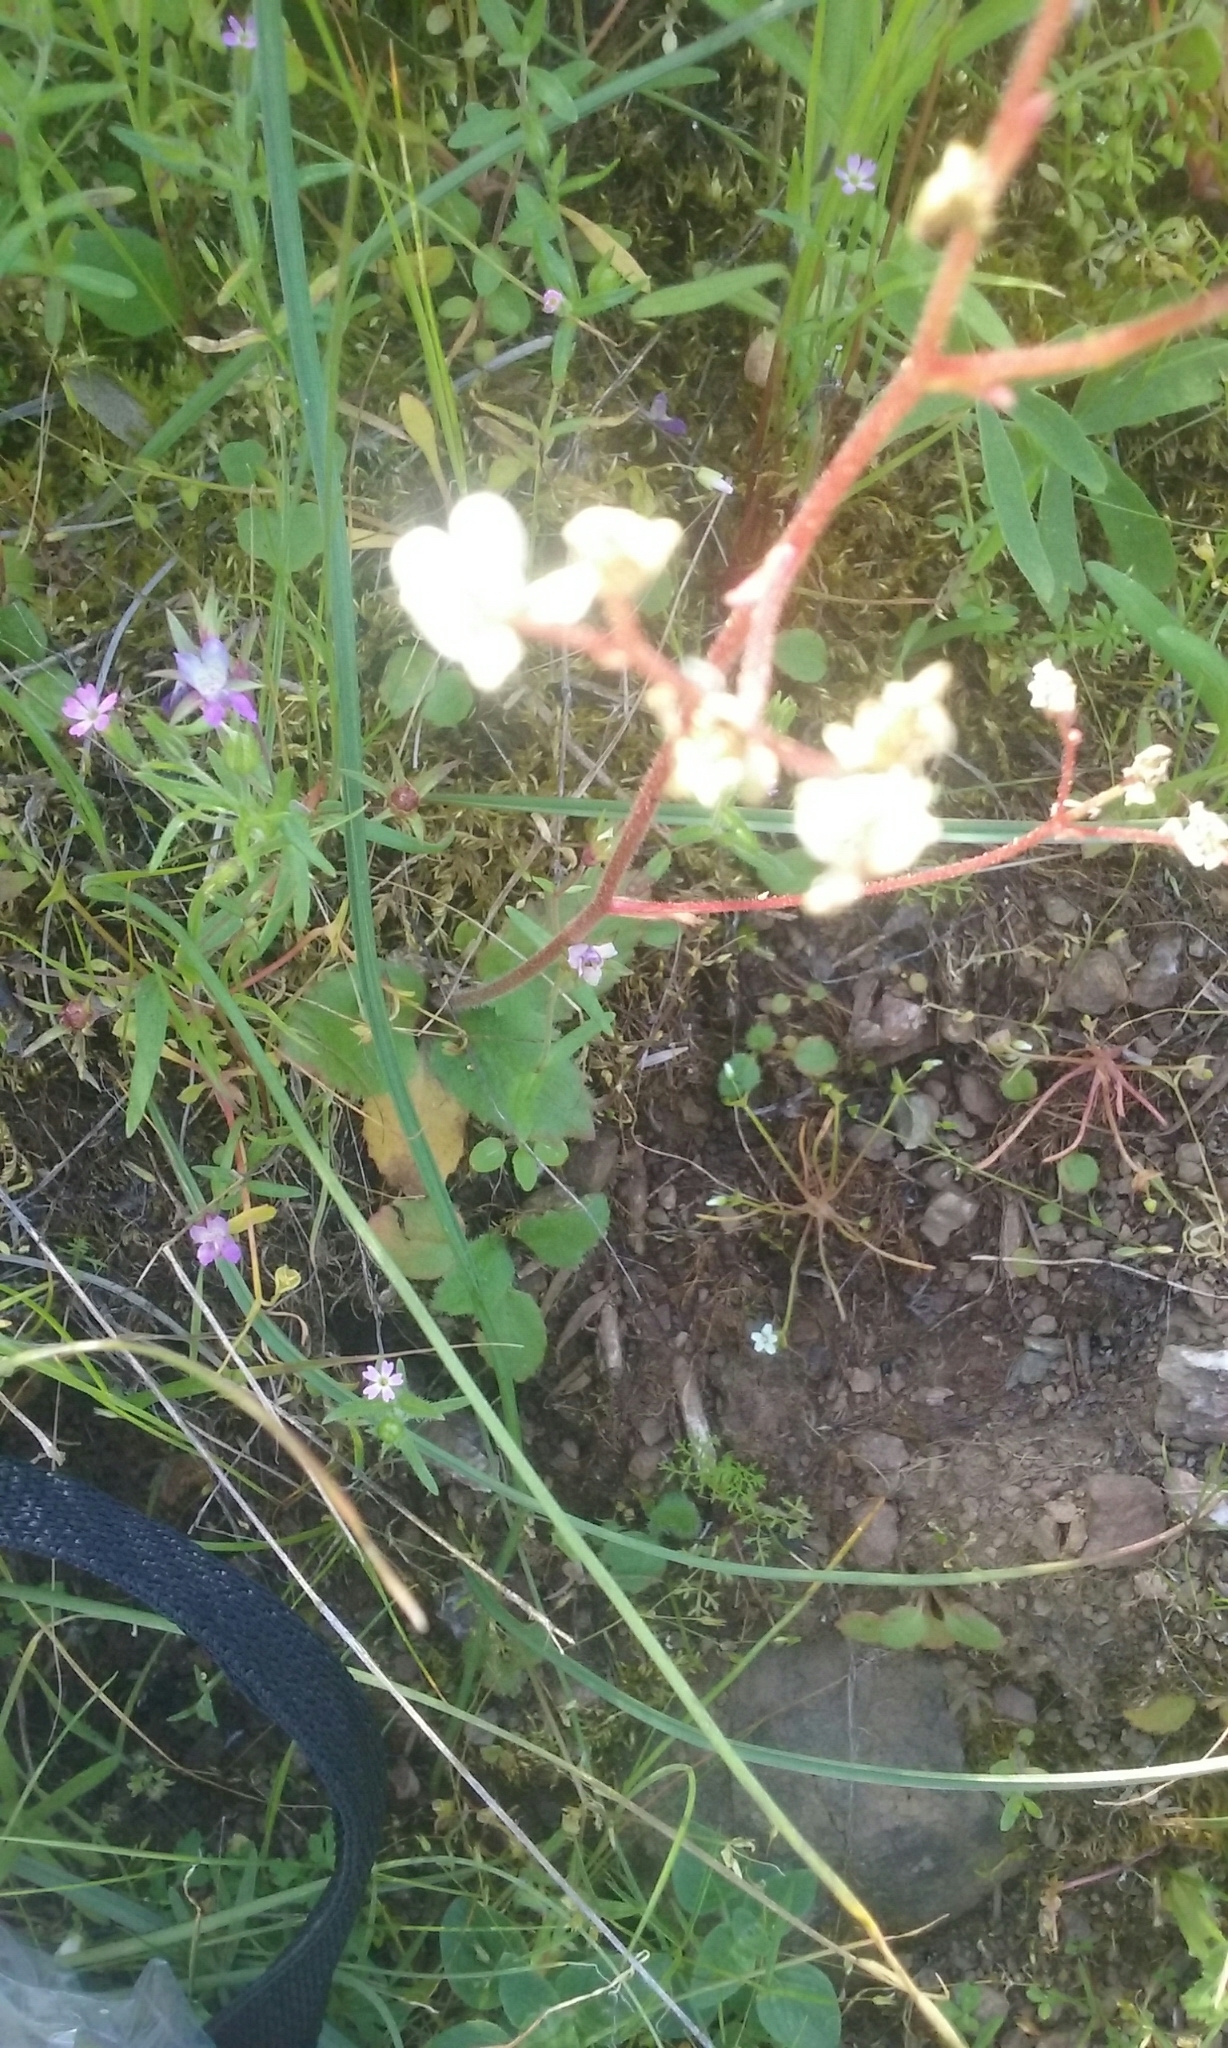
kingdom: Plantae
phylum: Tracheophyta
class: Magnoliopsida
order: Saxifragales
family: Saxifragaceae
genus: Micranthes
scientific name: Micranthes californica
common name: California saxifrage
